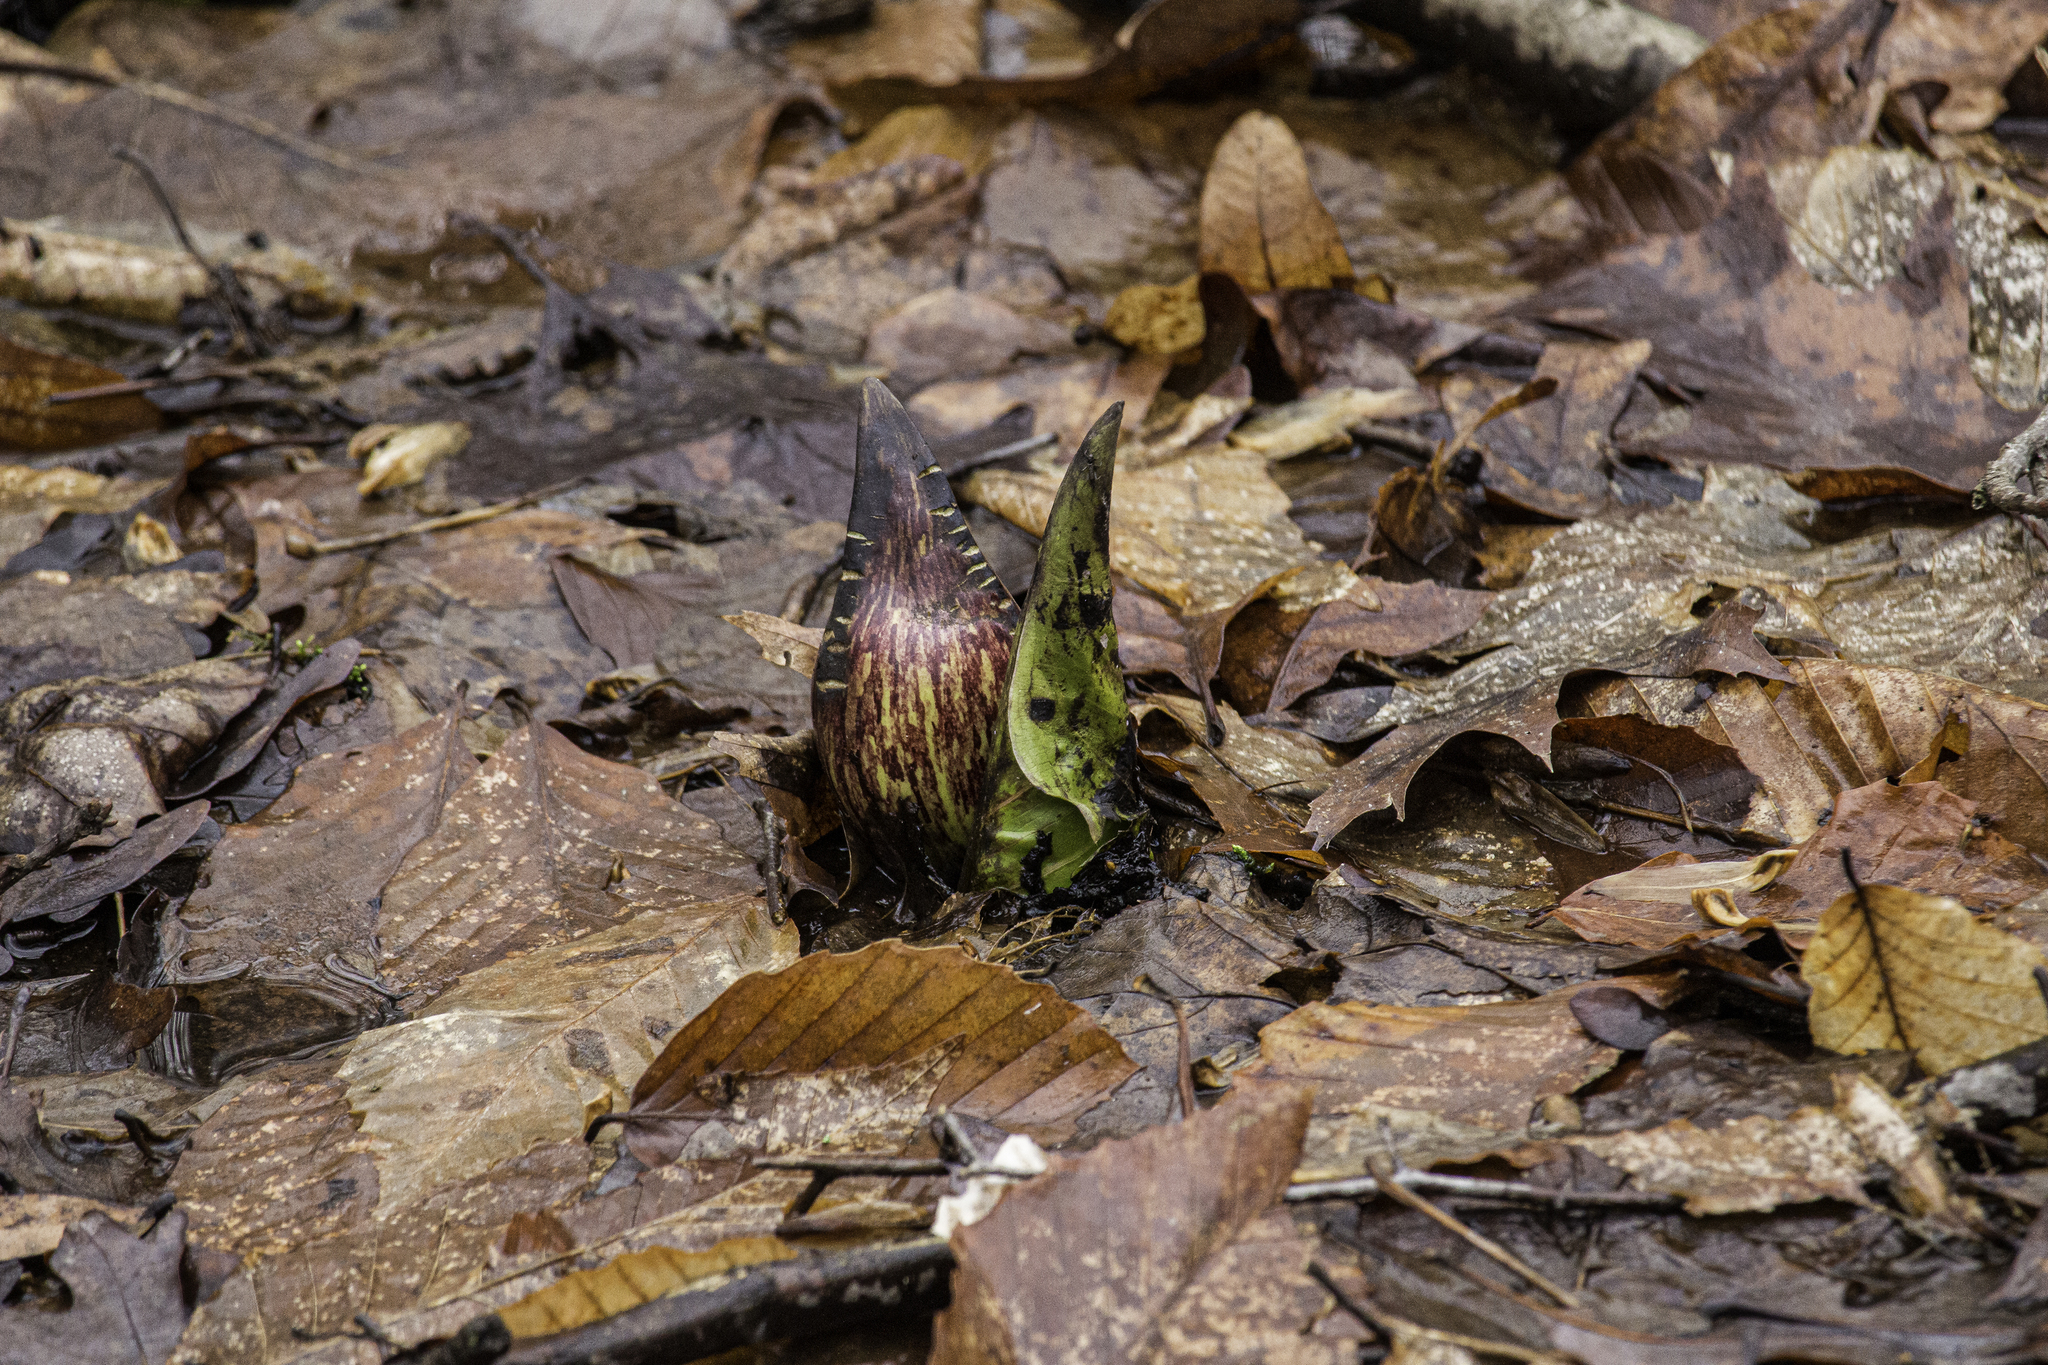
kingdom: Plantae
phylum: Tracheophyta
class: Liliopsida
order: Alismatales
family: Araceae
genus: Symplocarpus
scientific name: Symplocarpus foetidus
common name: Eastern skunk cabbage
